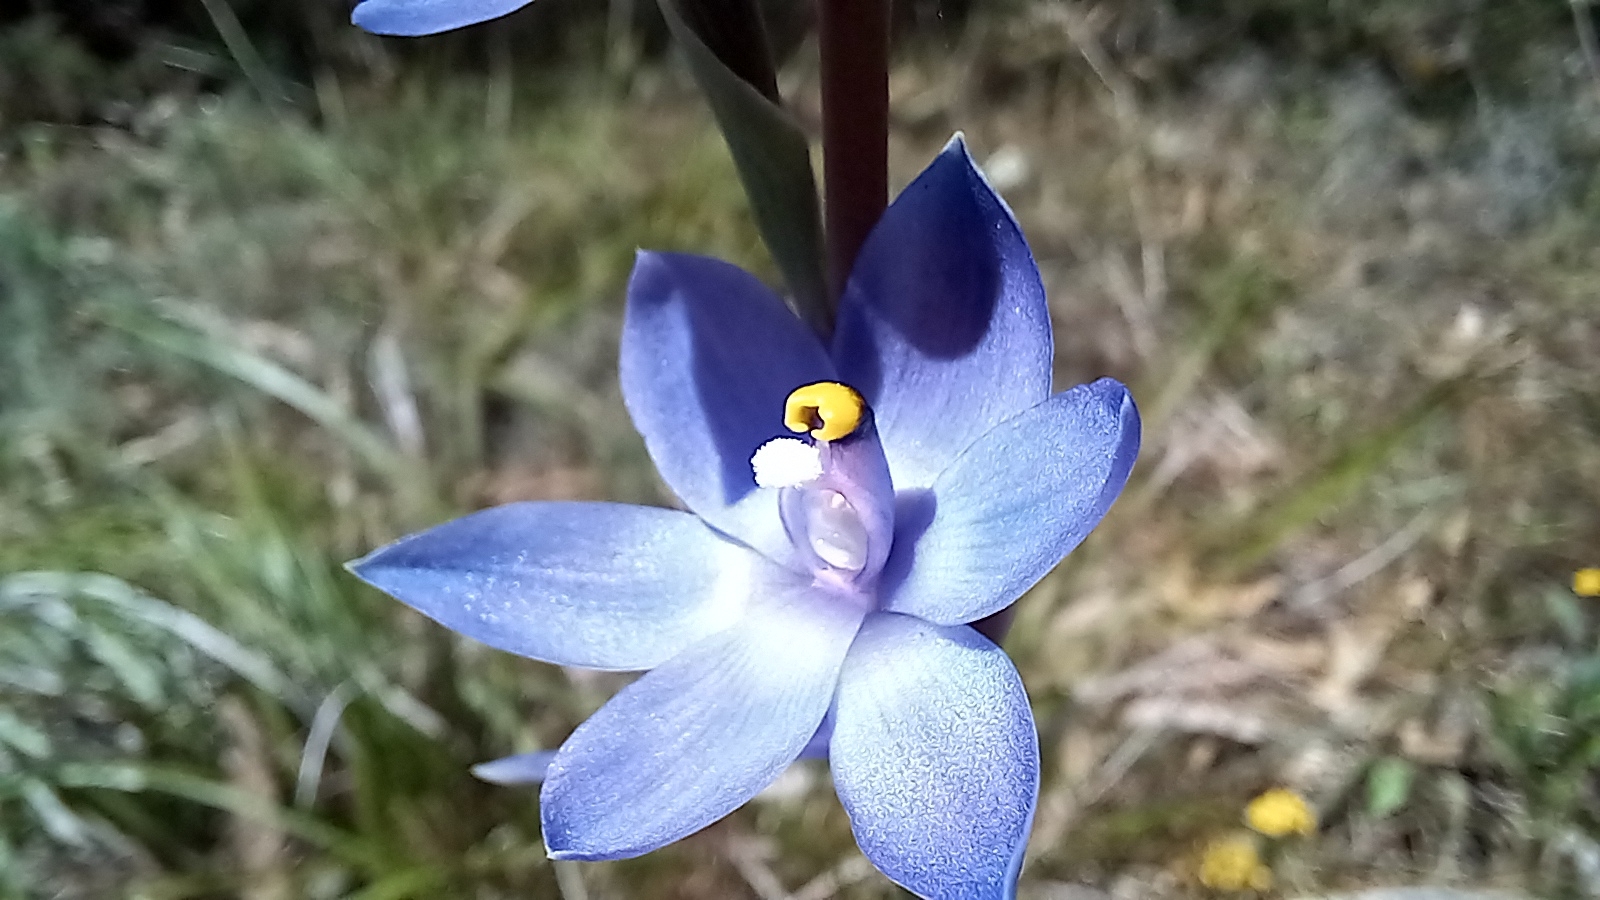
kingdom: Plantae
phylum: Tracheophyta
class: Liliopsida
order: Asparagales
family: Orchidaceae
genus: Thelymitra
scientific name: Thelymitra macrophylla
